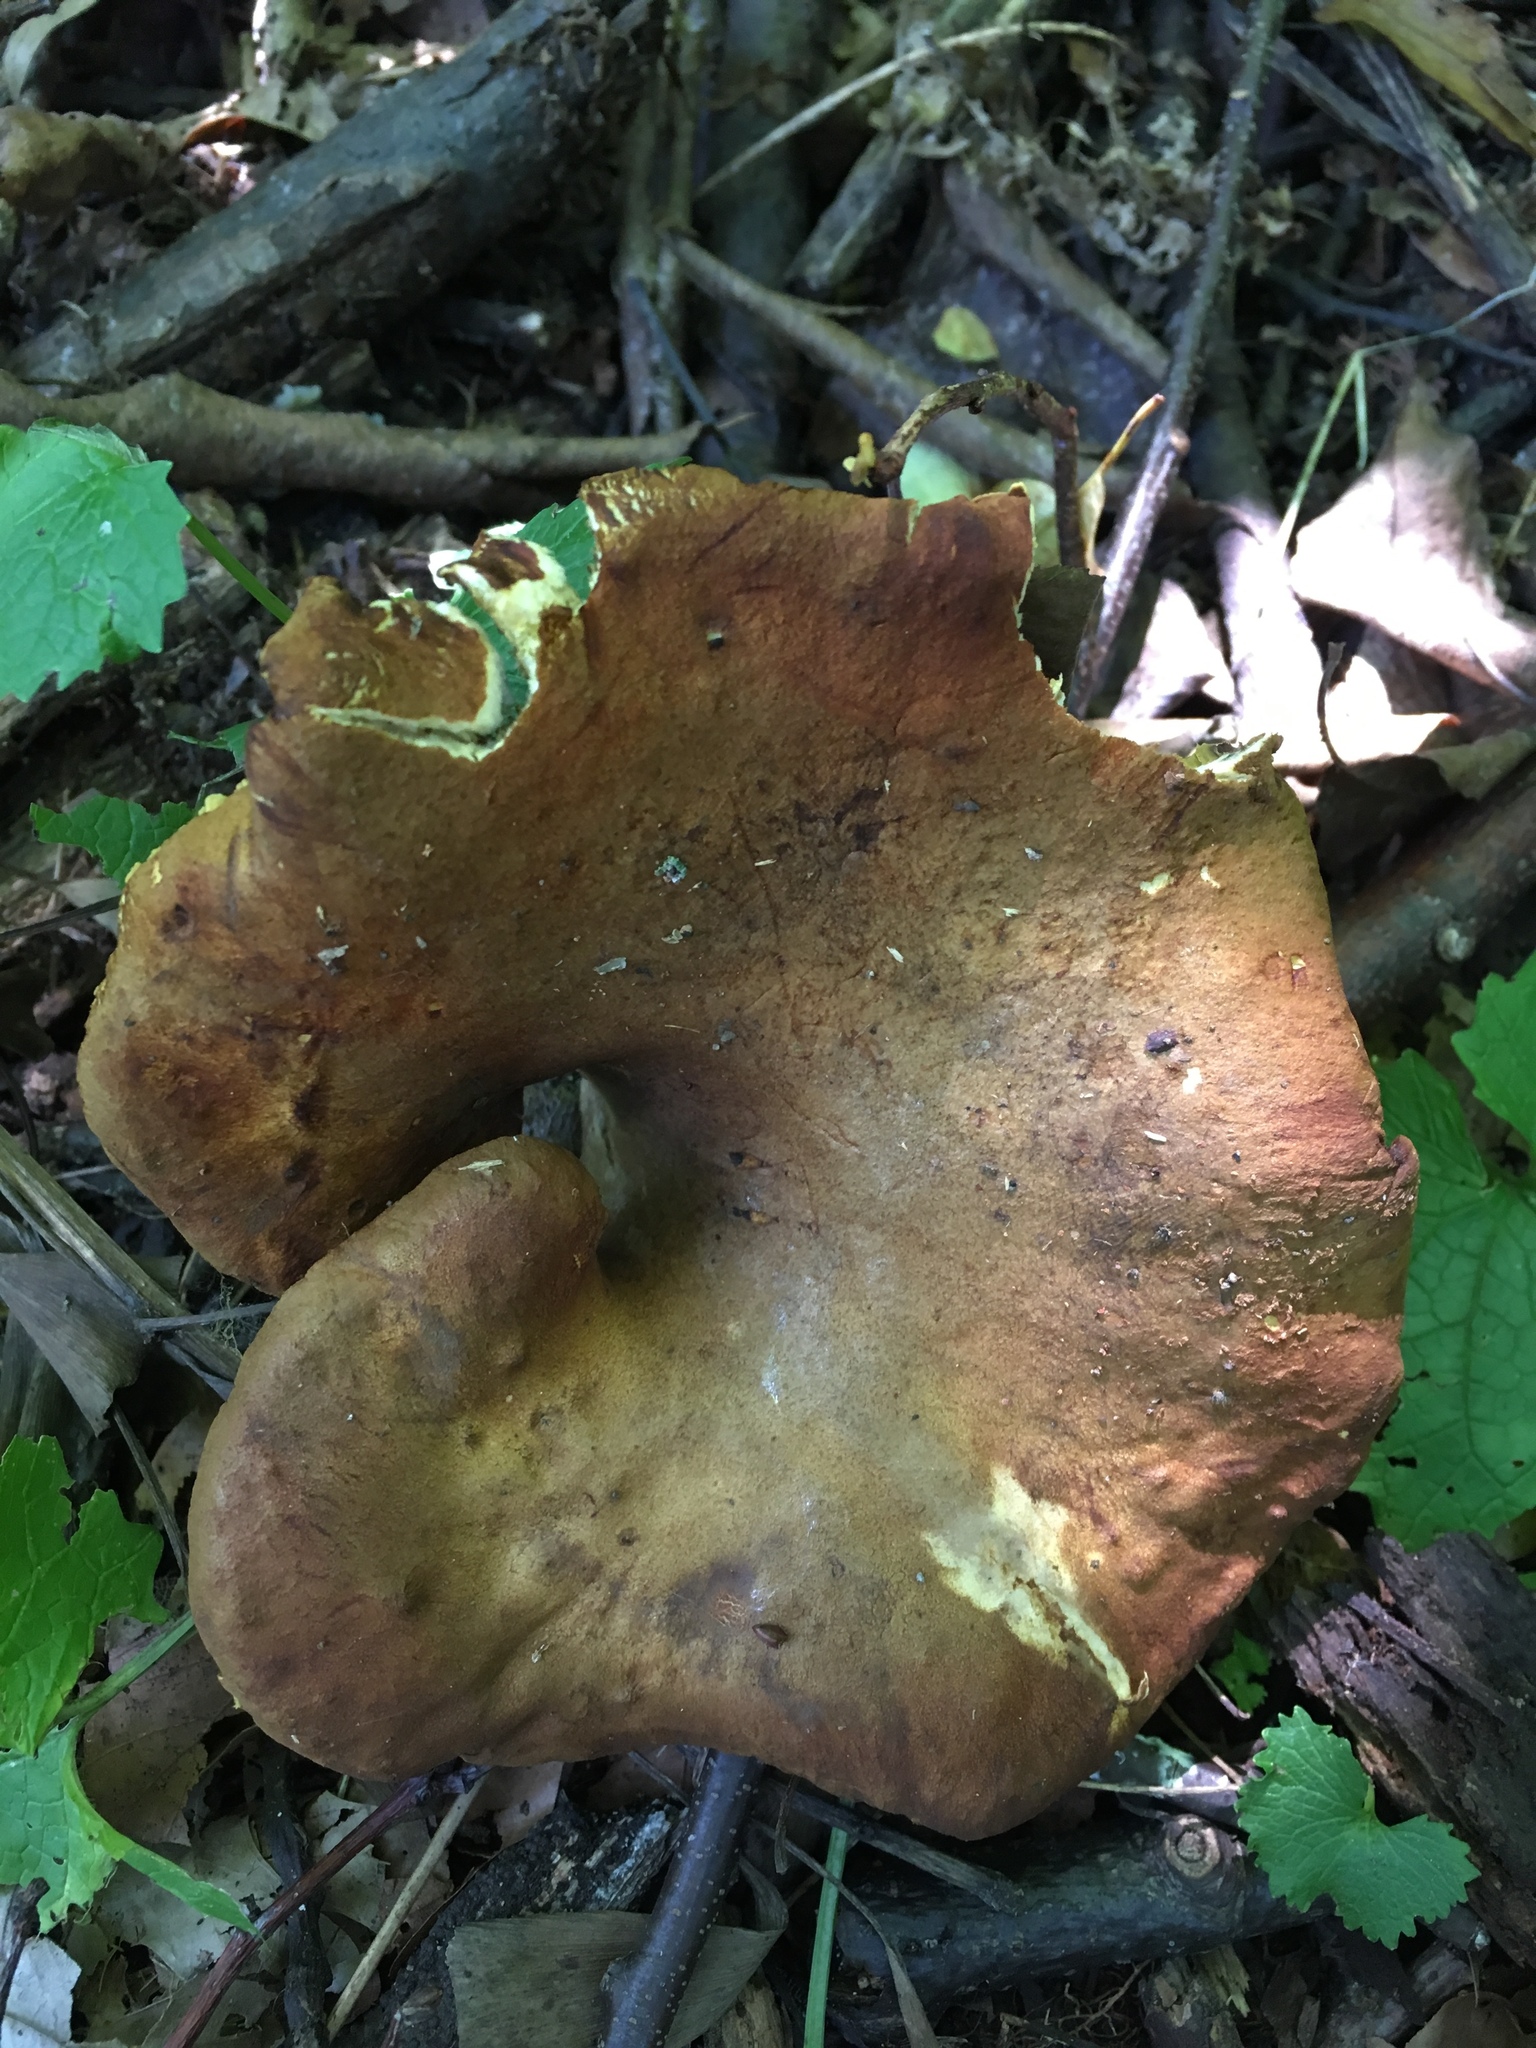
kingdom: Fungi
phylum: Basidiomycota
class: Agaricomycetes
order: Boletales
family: Boletinellaceae
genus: Boletinellus
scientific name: Boletinellus merulioides
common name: Ash tree bolete
